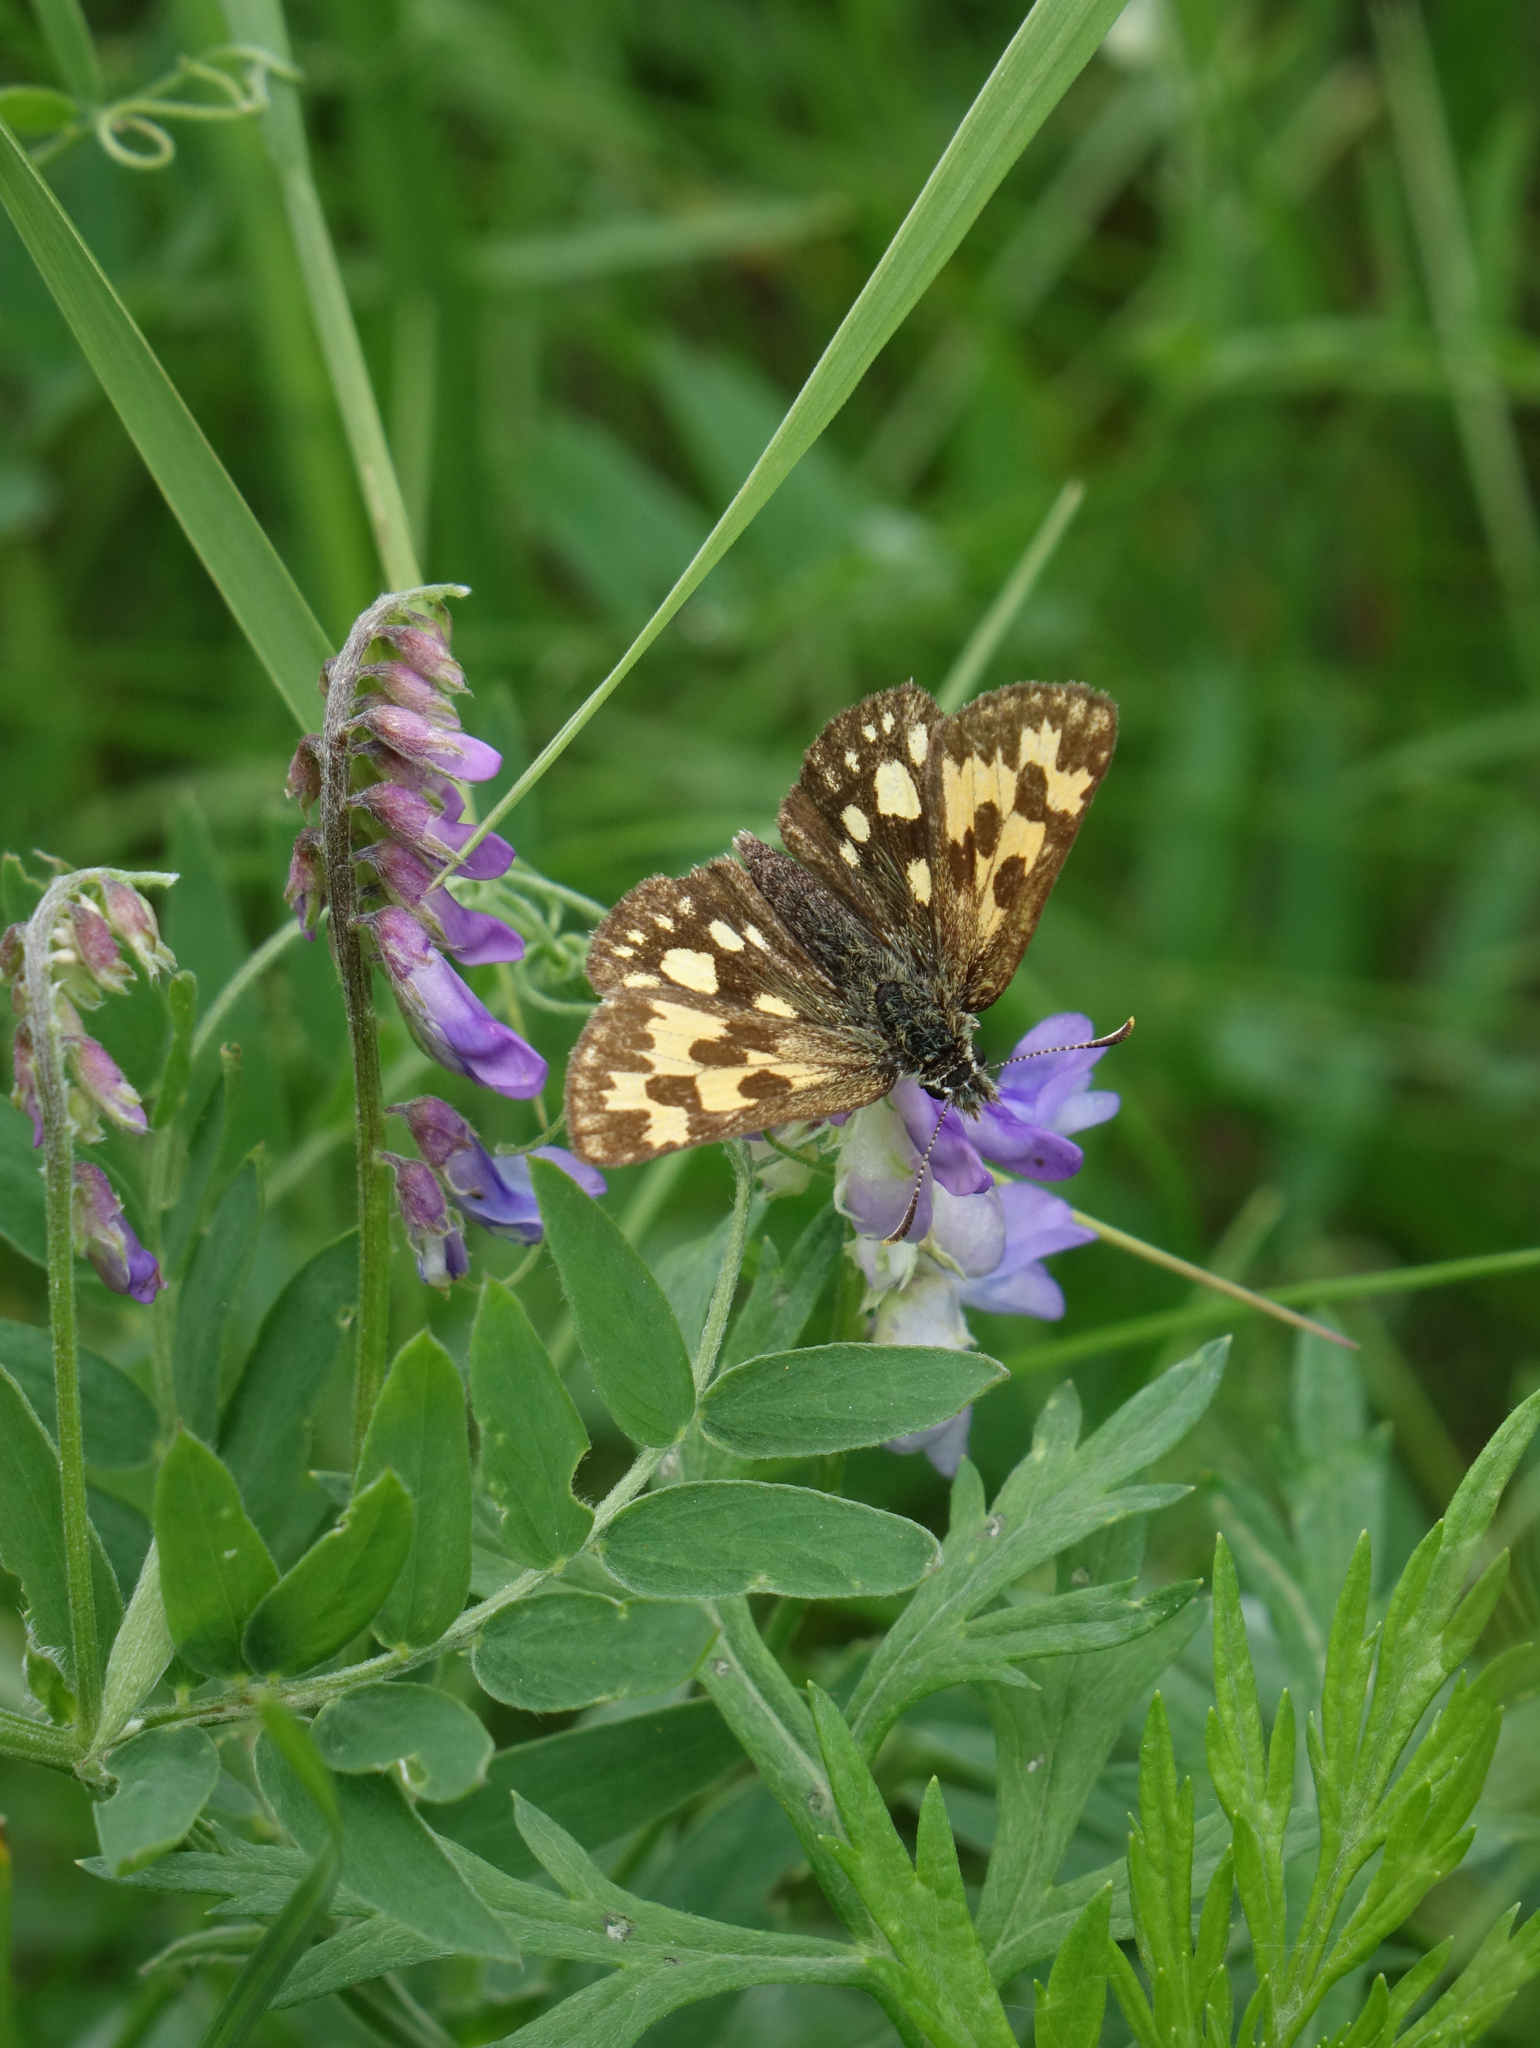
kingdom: Plantae
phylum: Tracheophyta
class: Magnoliopsida
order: Fabales
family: Fabaceae
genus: Vicia
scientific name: Vicia cracca
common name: Bird vetch
